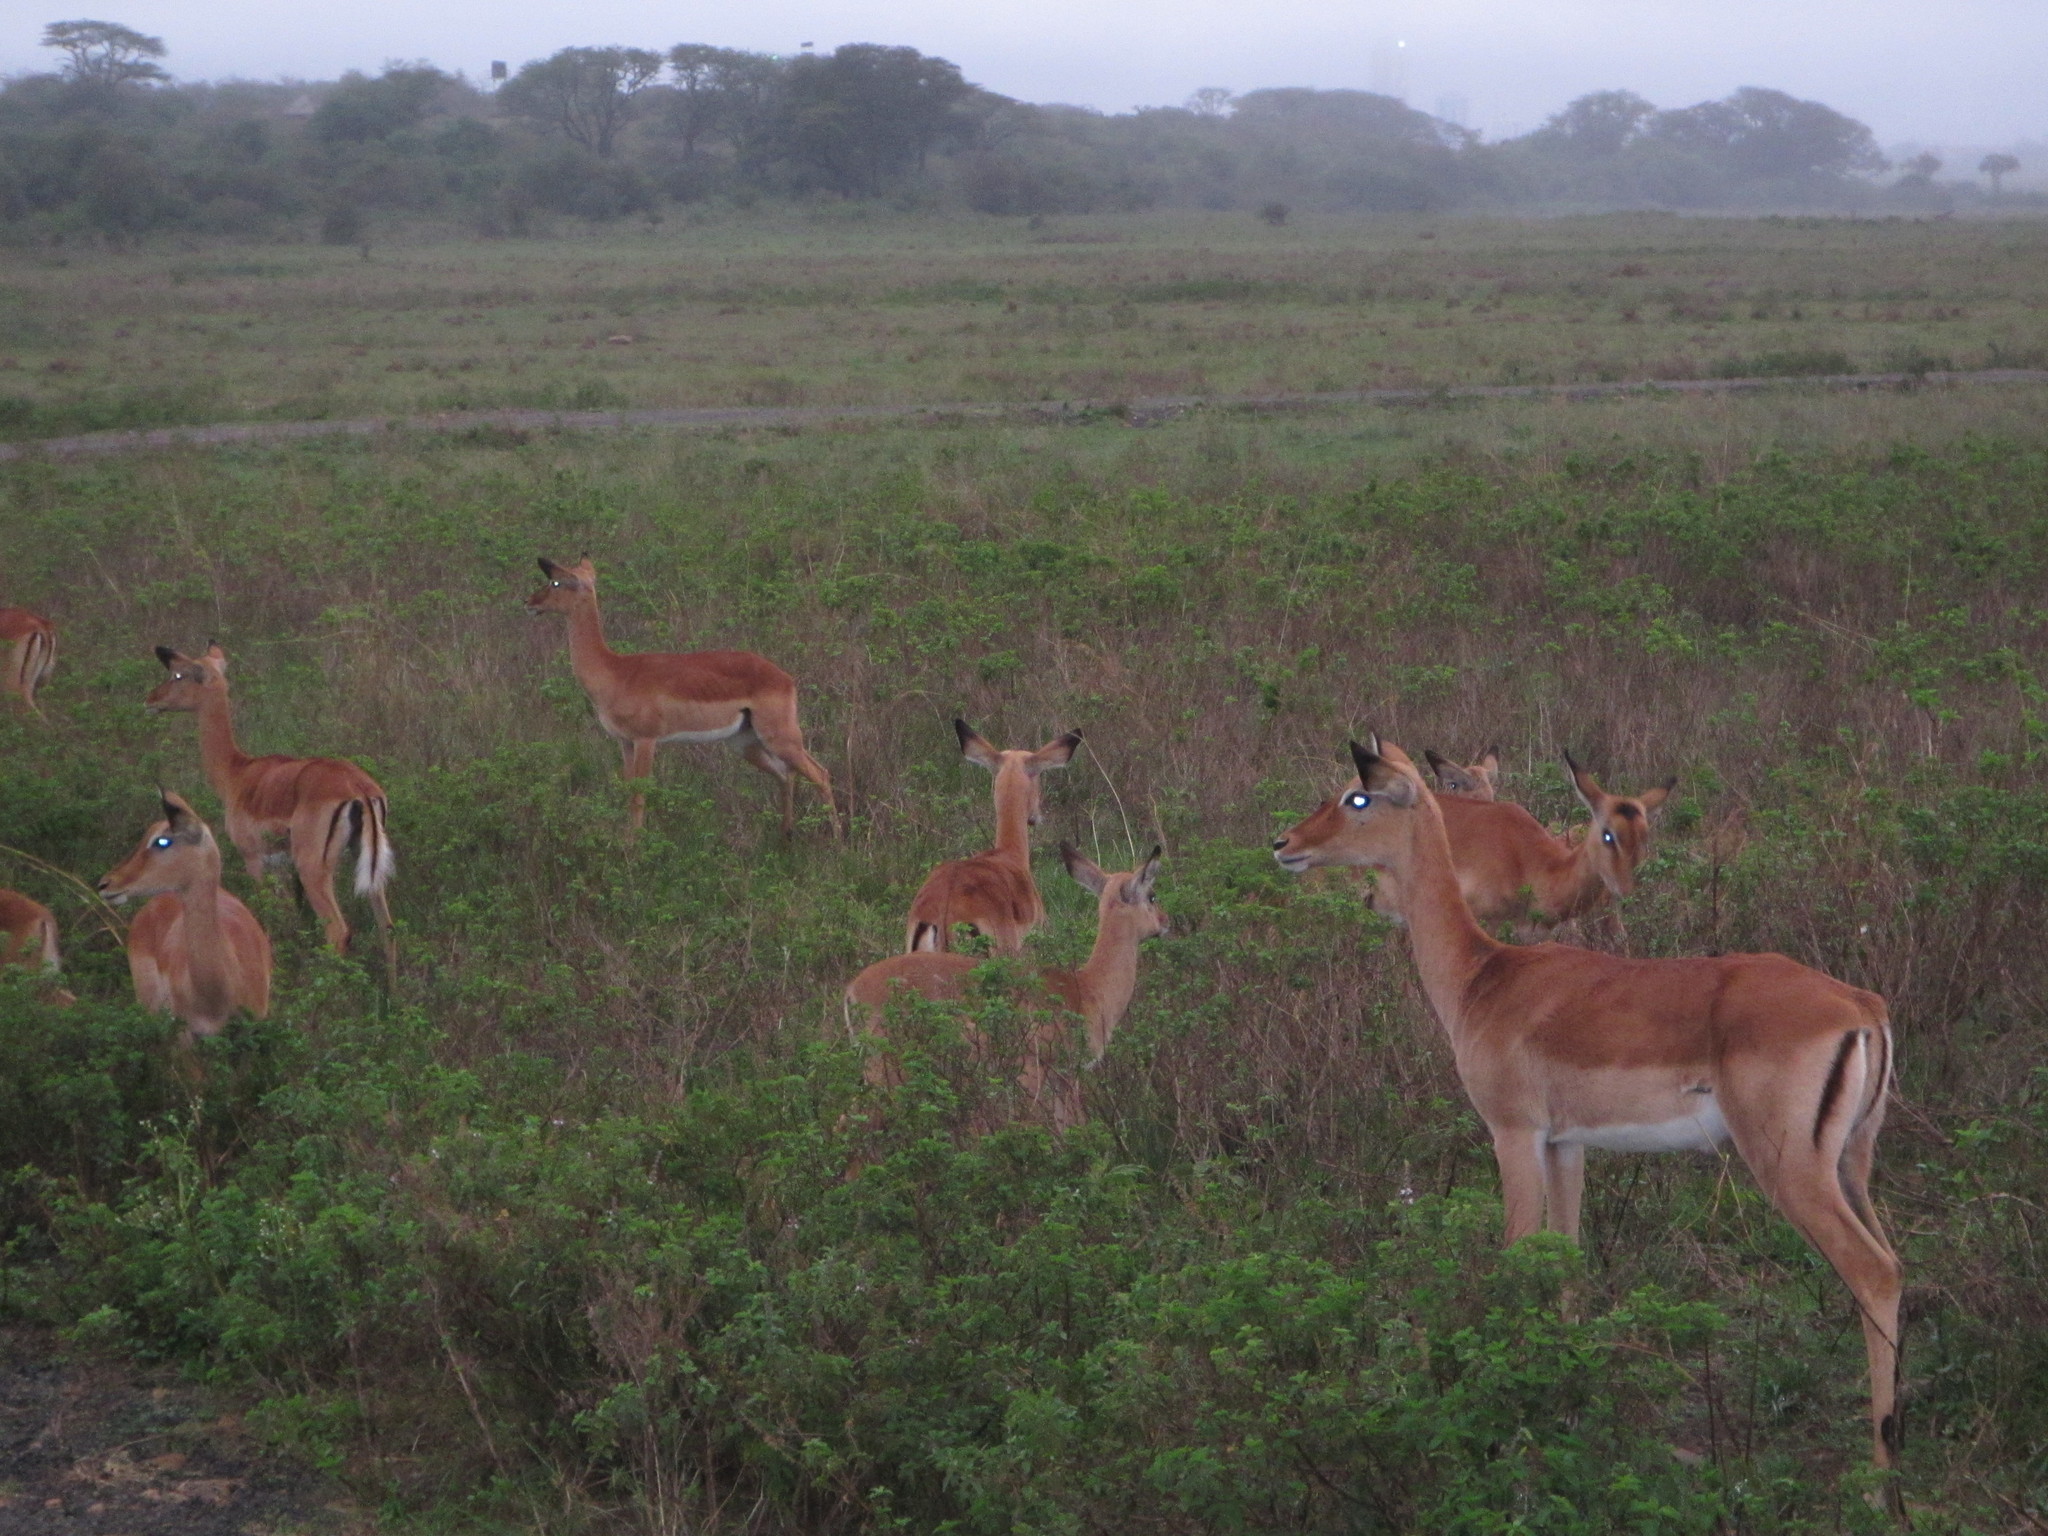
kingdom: Animalia
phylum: Chordata
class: Mammalia
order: Artiodactyla
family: Bovidae
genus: Aepyceros
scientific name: Aepyceros melampus
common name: Impala
